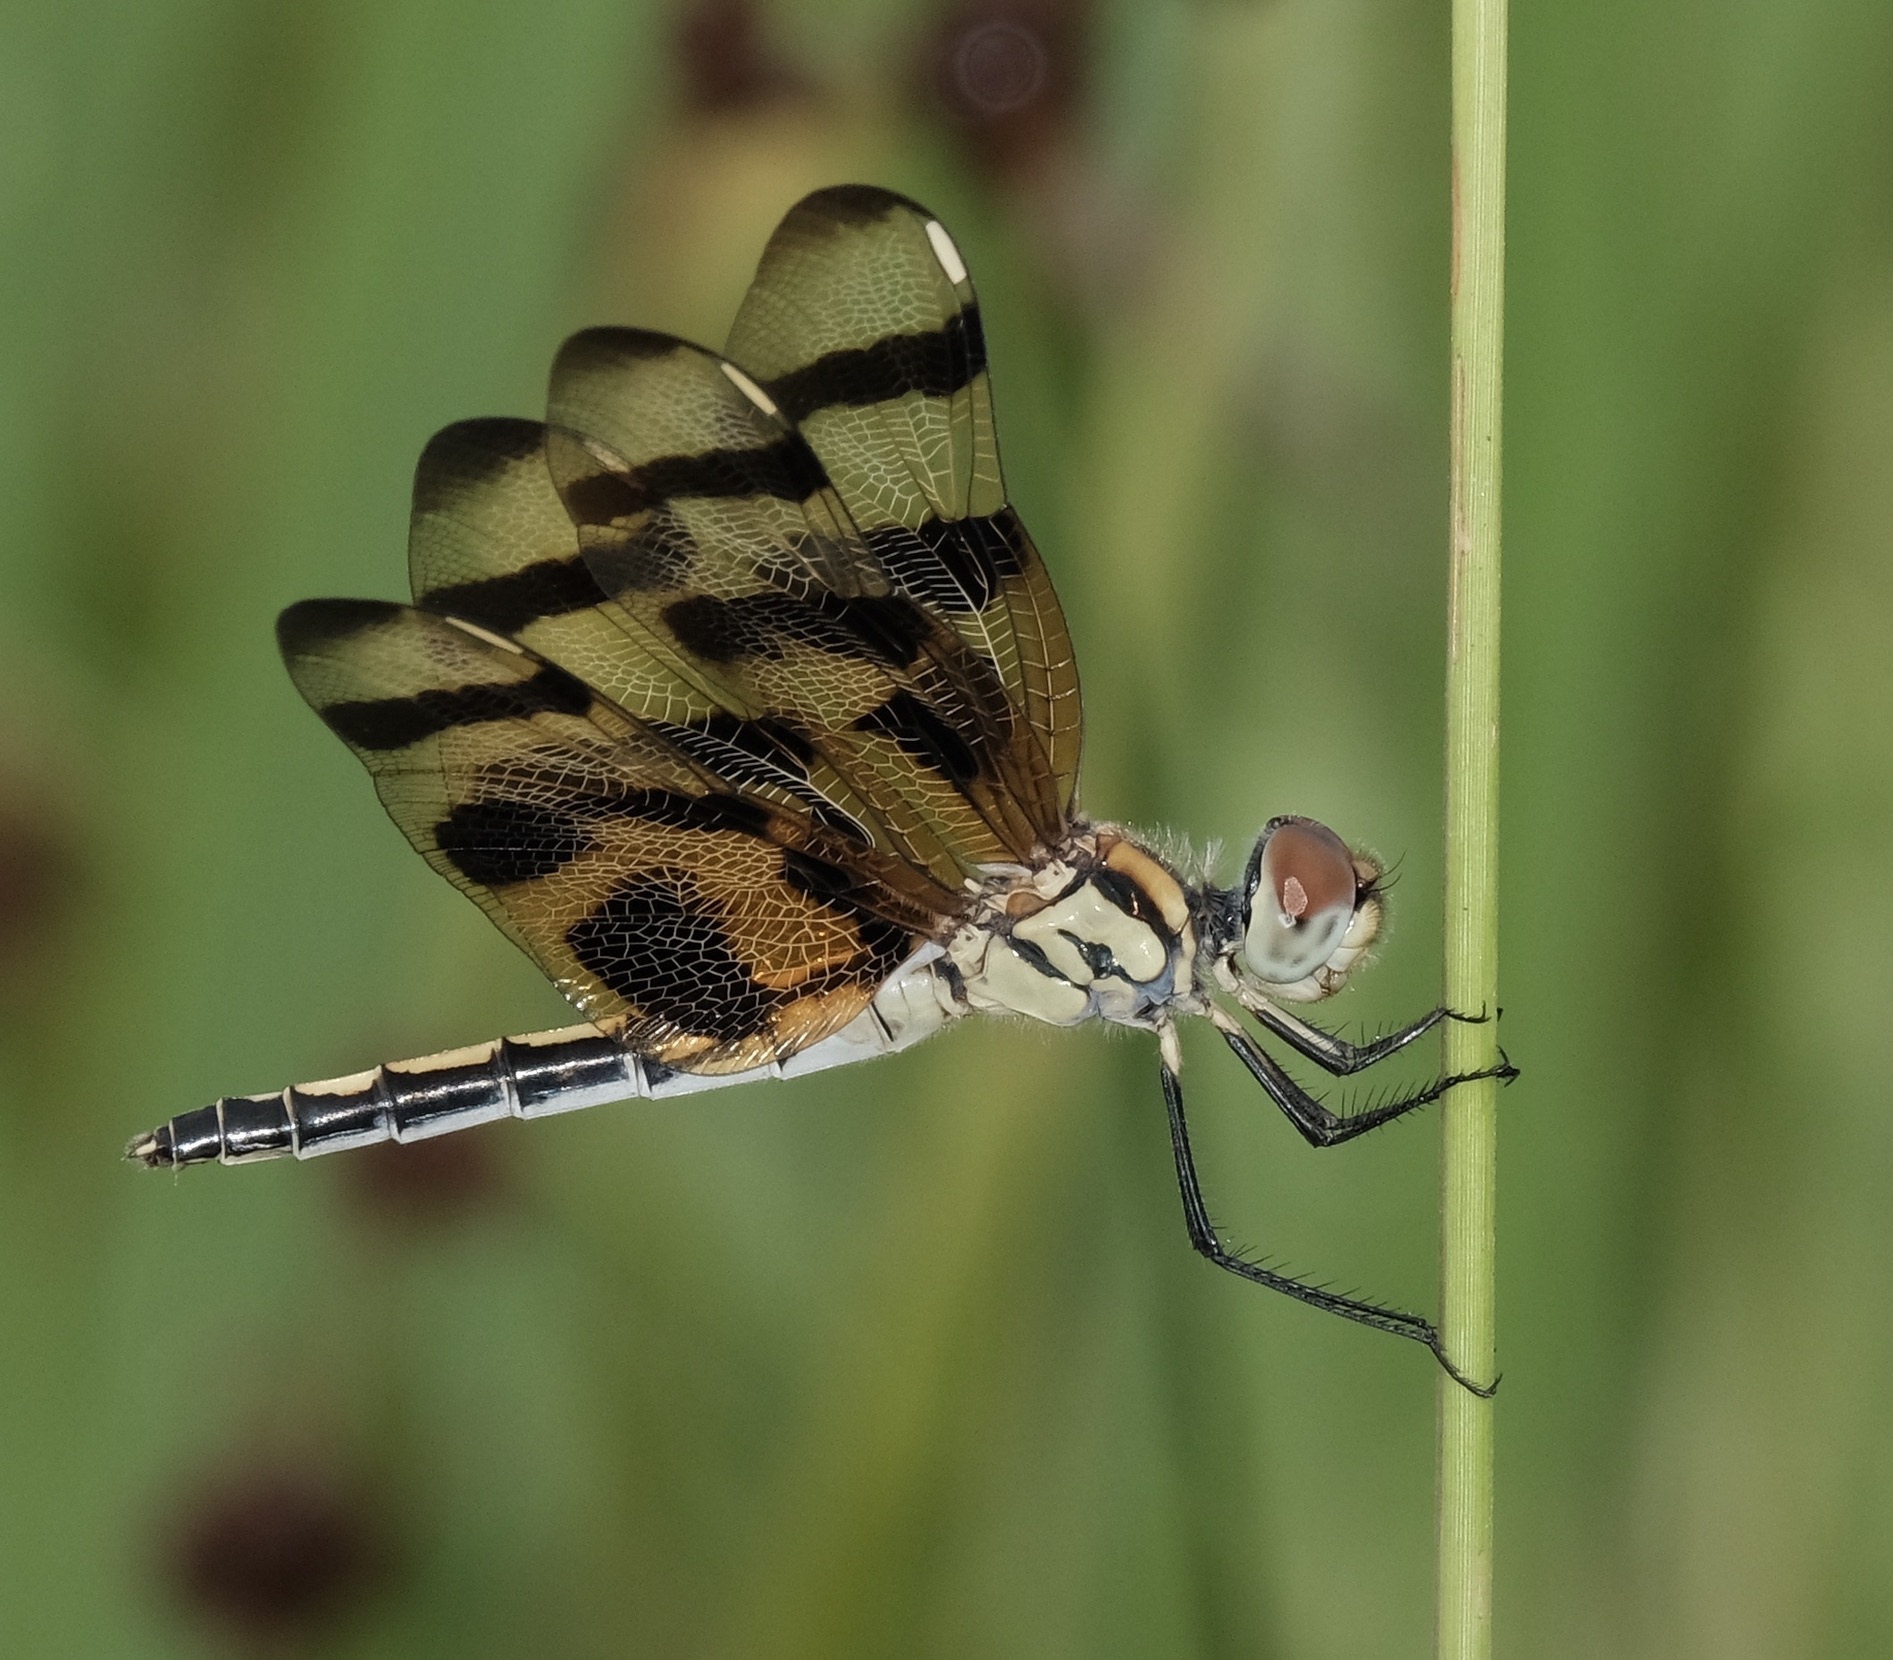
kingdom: Animalia
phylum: Arthropoda
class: Insecta
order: Odonata
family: Libellulidae
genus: Celithemis
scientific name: Celithemis eponina
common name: Halloween pennant
